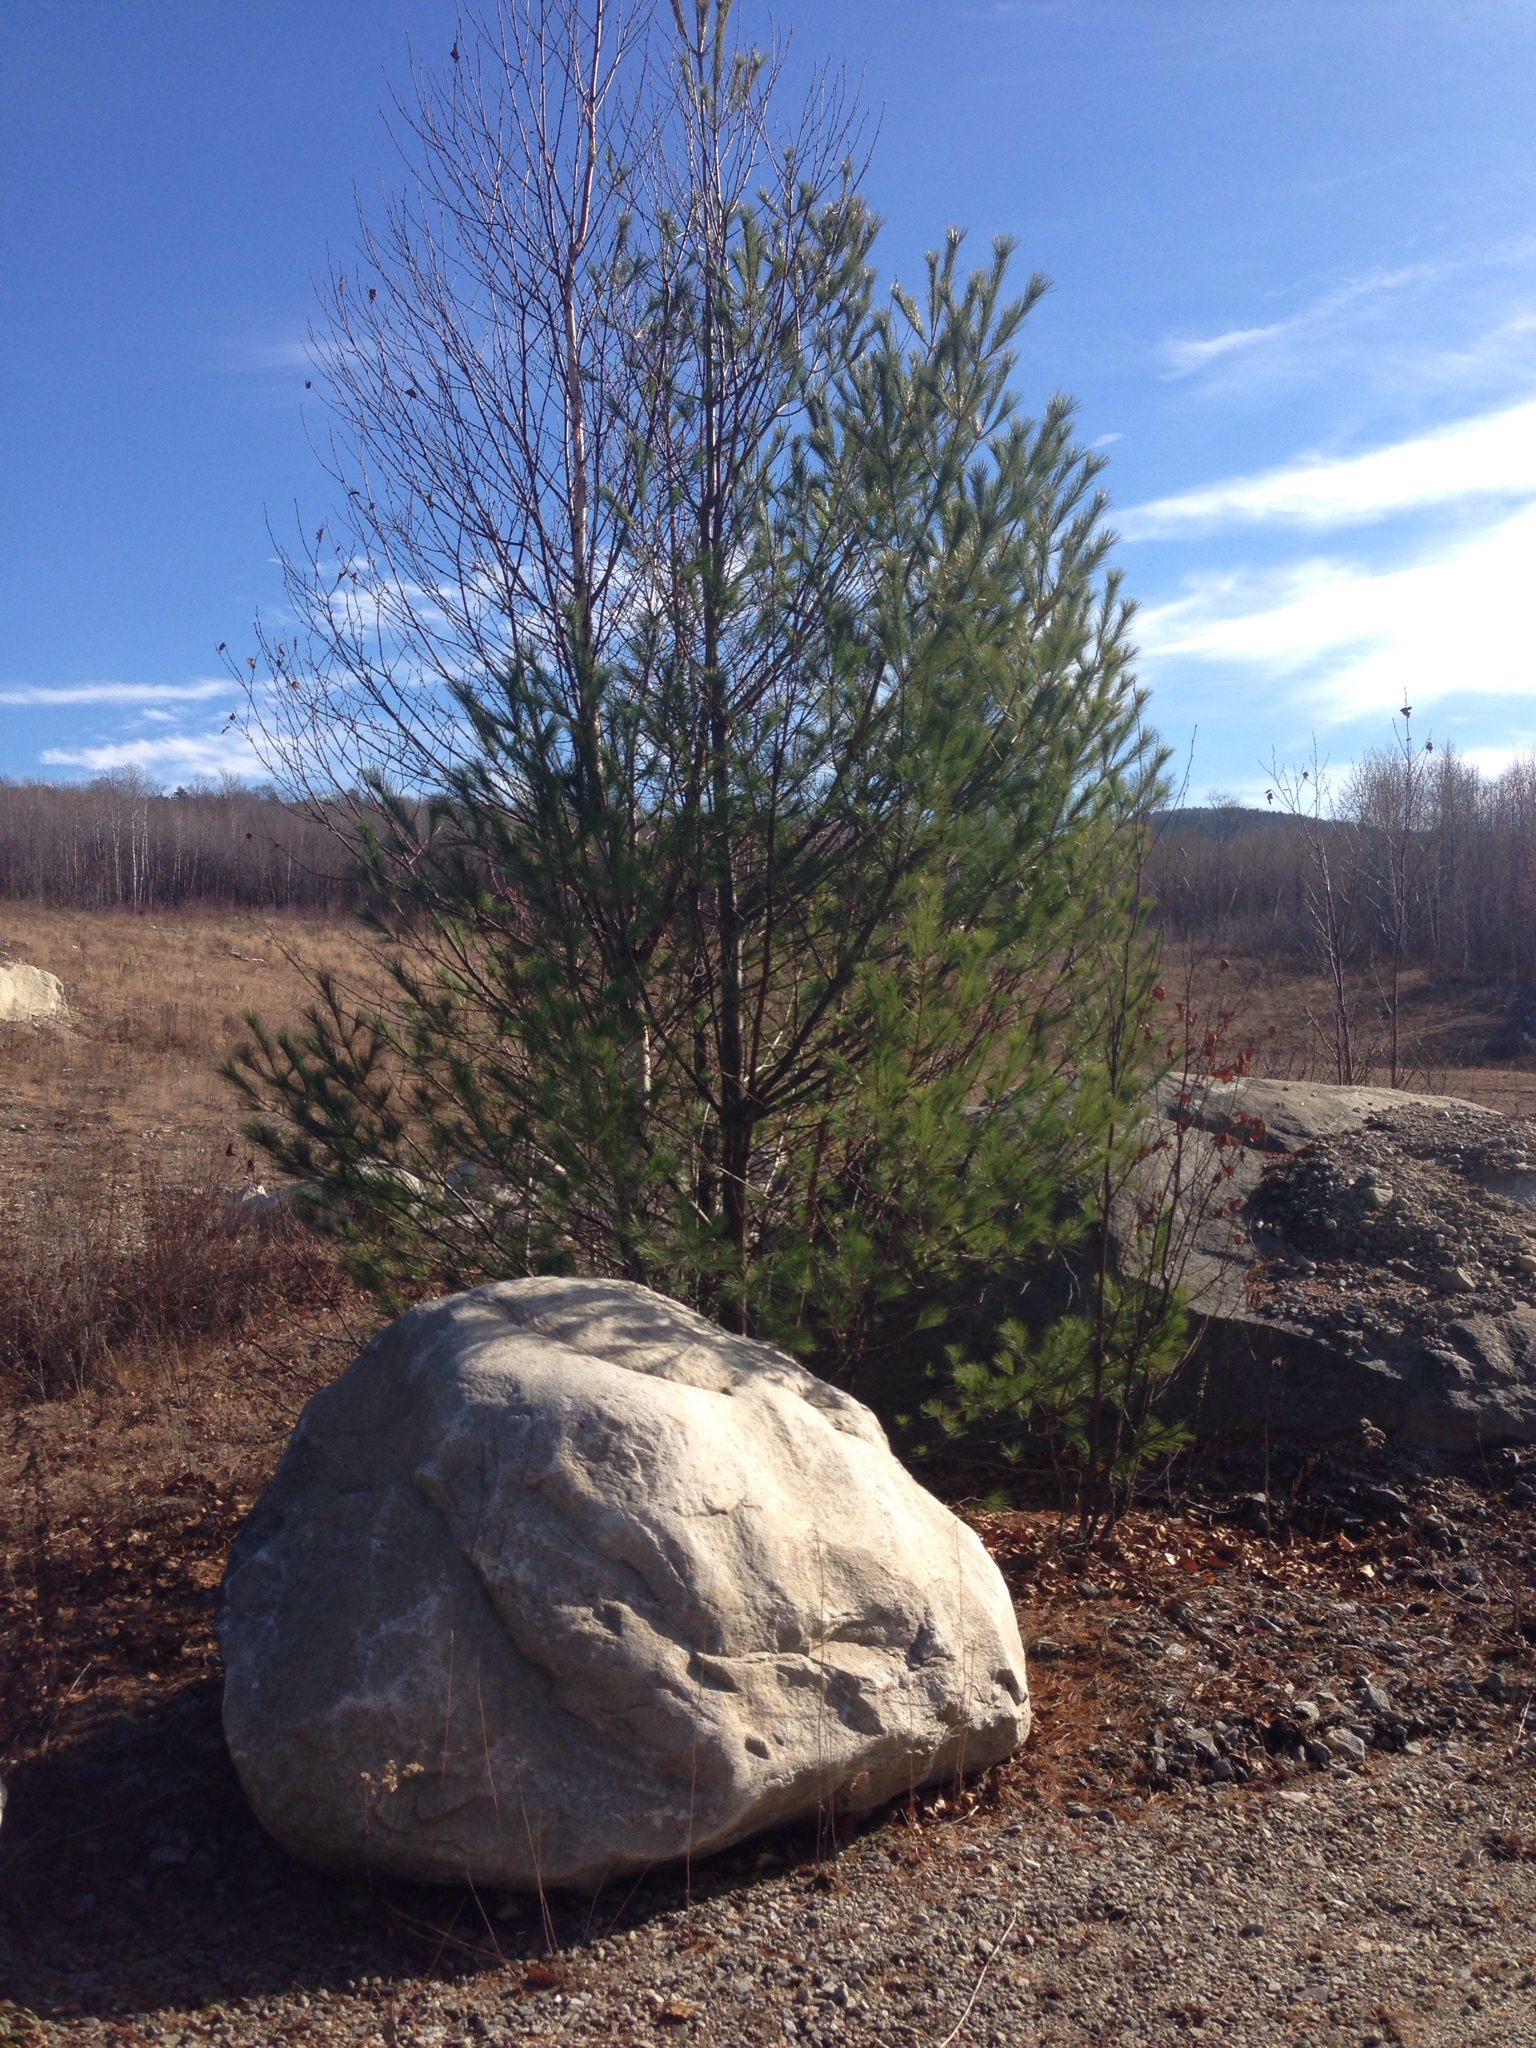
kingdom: Plantae
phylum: Tracheophyta
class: Pinopsida
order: Pinales
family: Pinaceae
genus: Pinus
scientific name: Pinus strobus
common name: Weymouth pine
